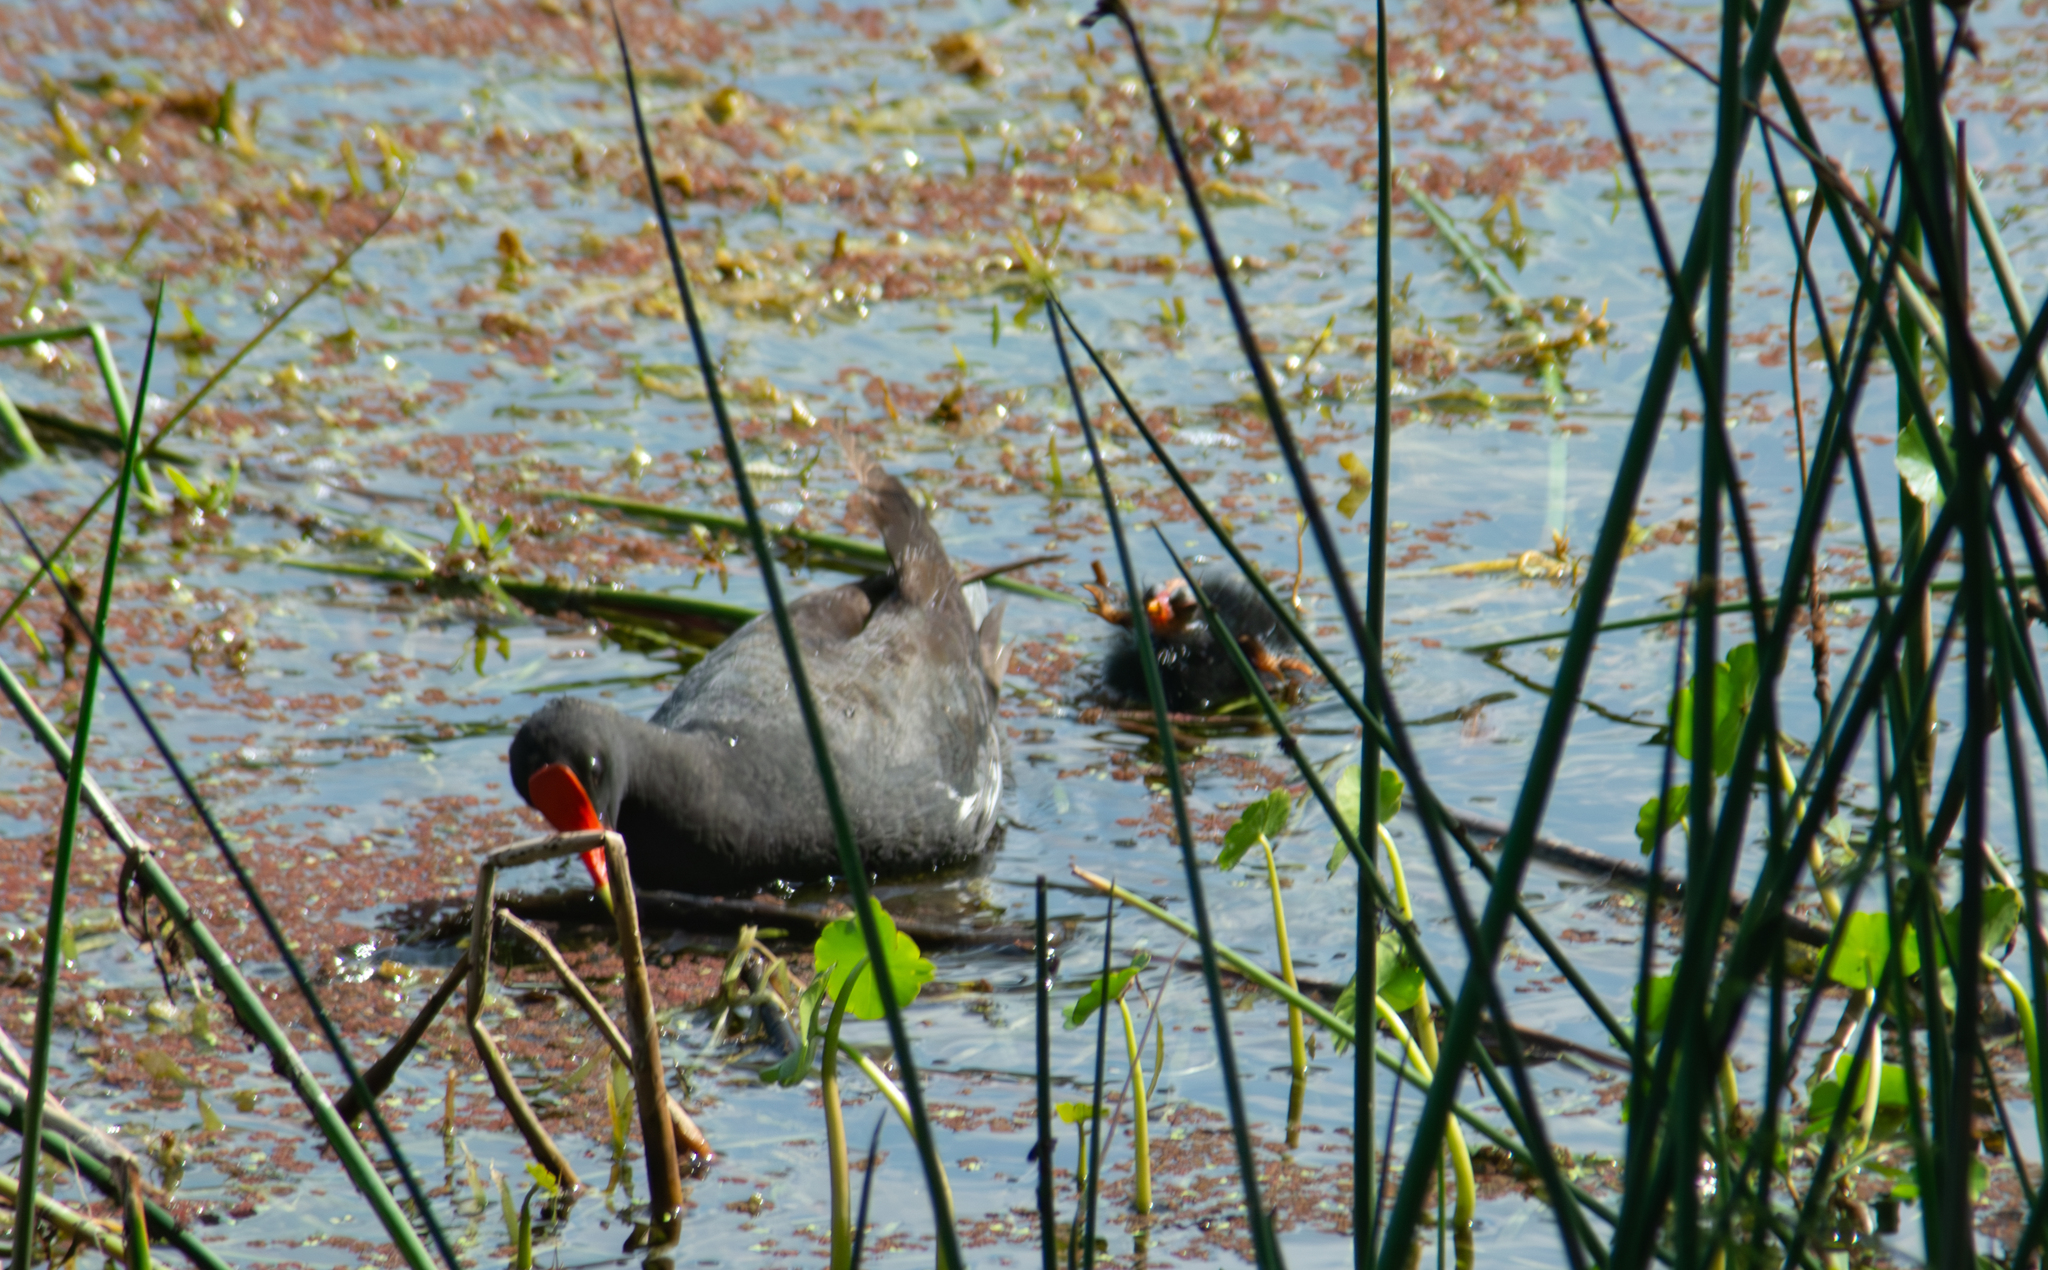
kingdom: Animalia
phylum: Chordata
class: Aves
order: Gruiformes
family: Rallidae
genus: Gallinula
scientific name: Gallinula chloropus
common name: Common moorhen
